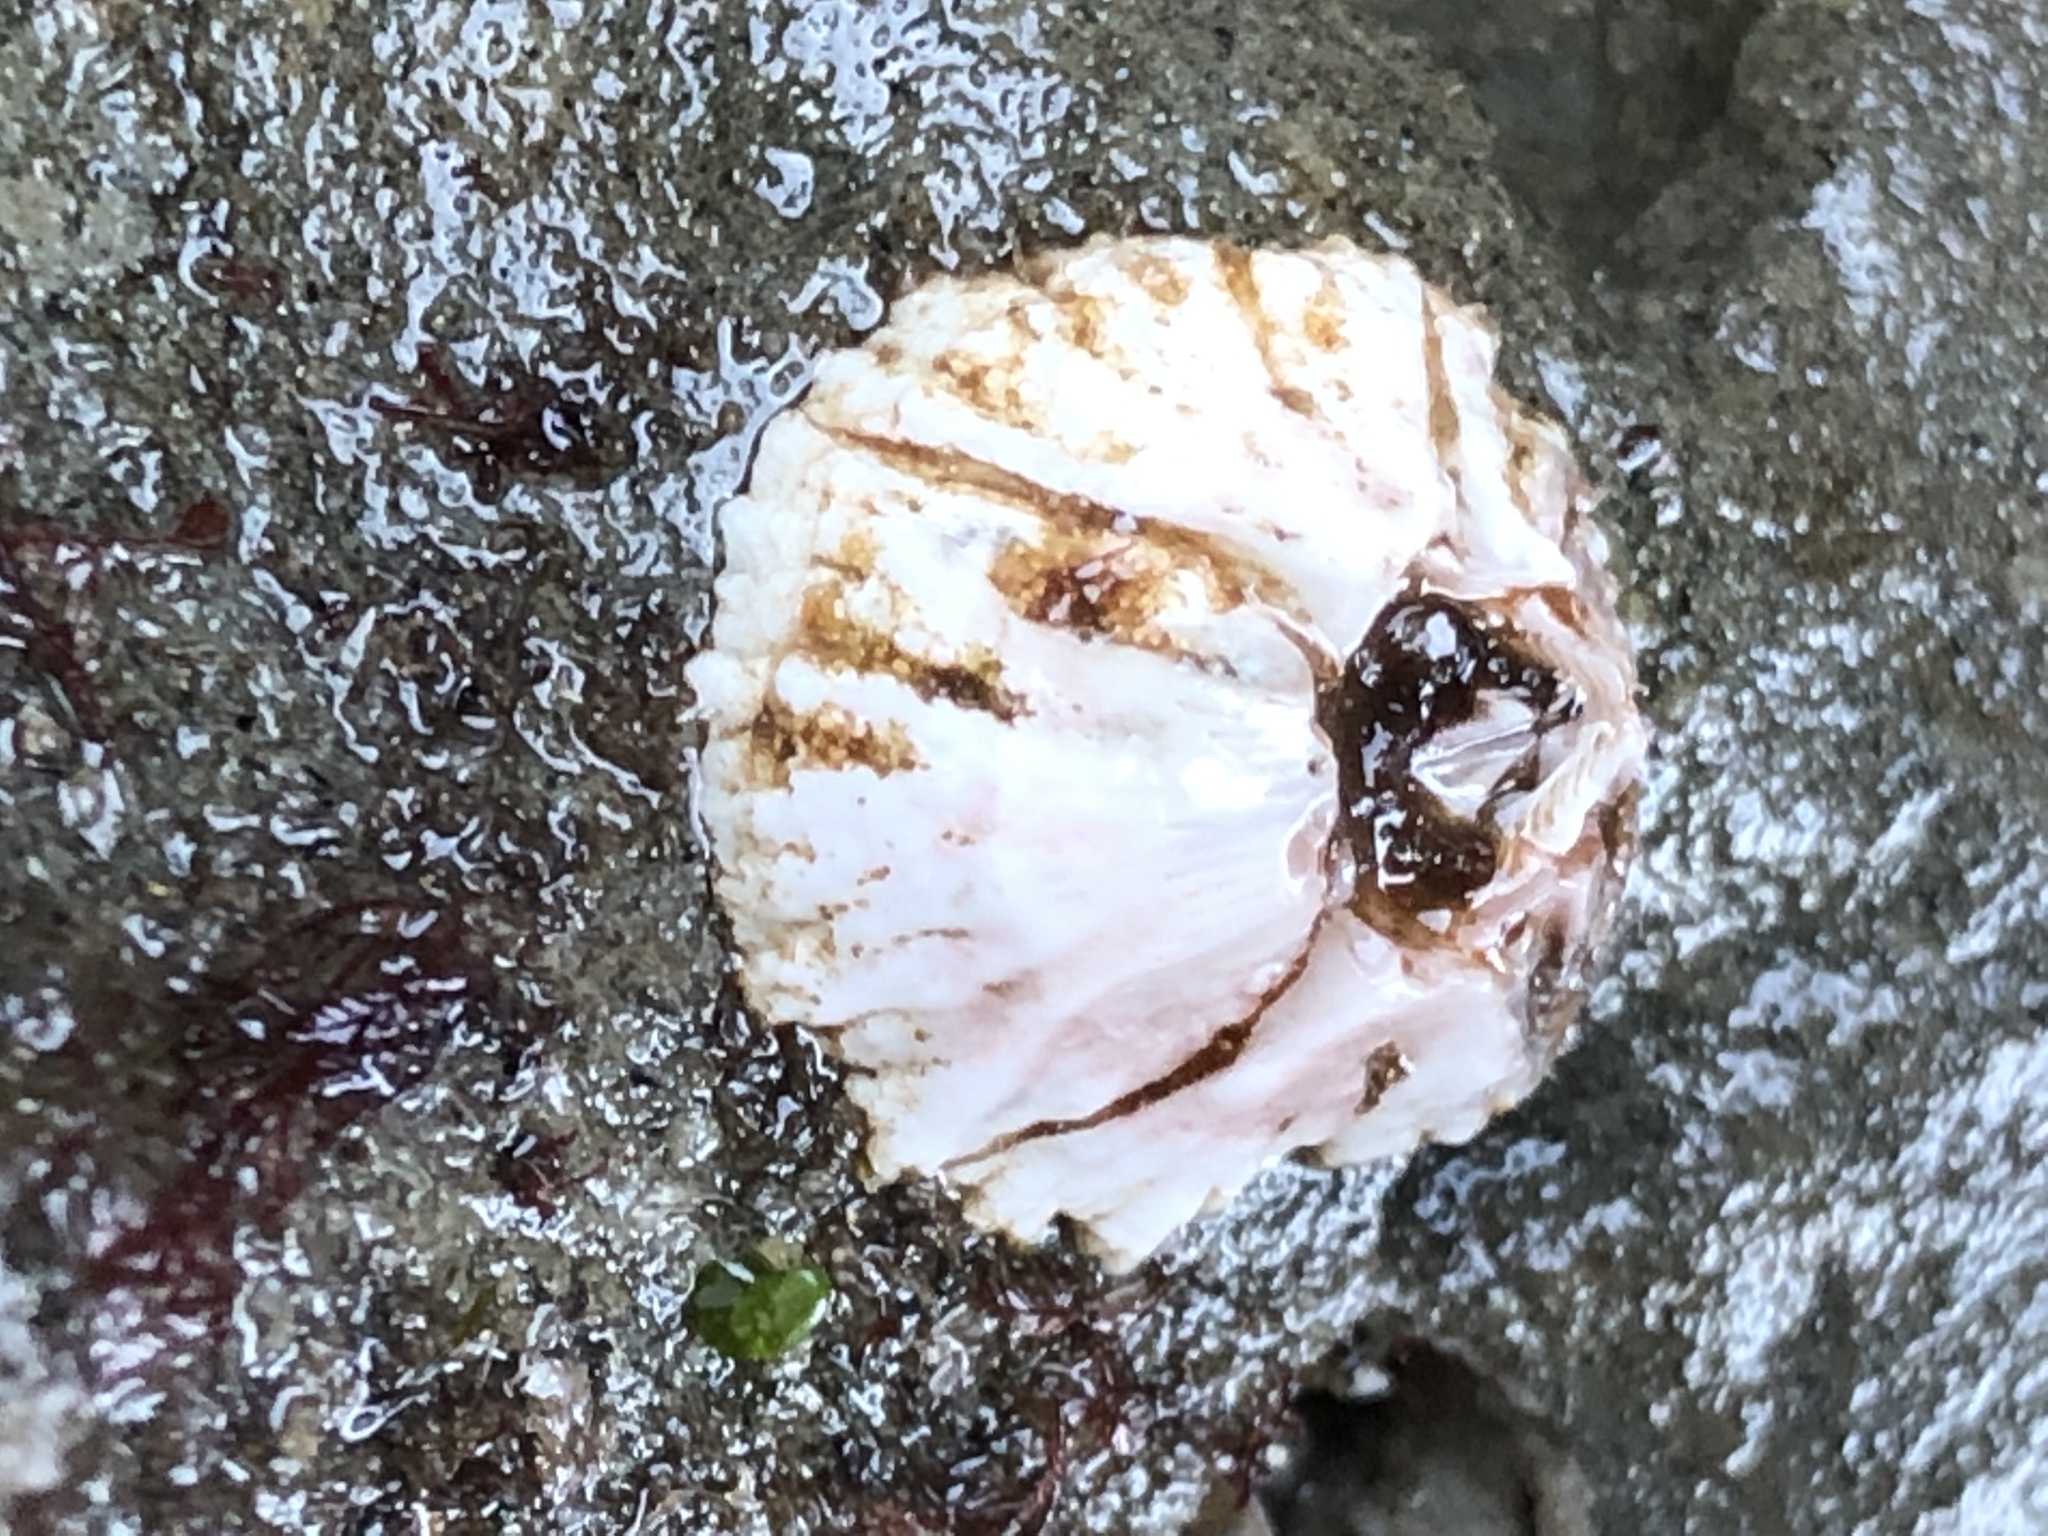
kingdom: Animalia
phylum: Arthropoda
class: Maxillopoda
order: Sessilia
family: Balanidae
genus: Balanus
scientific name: Balanus glandula
